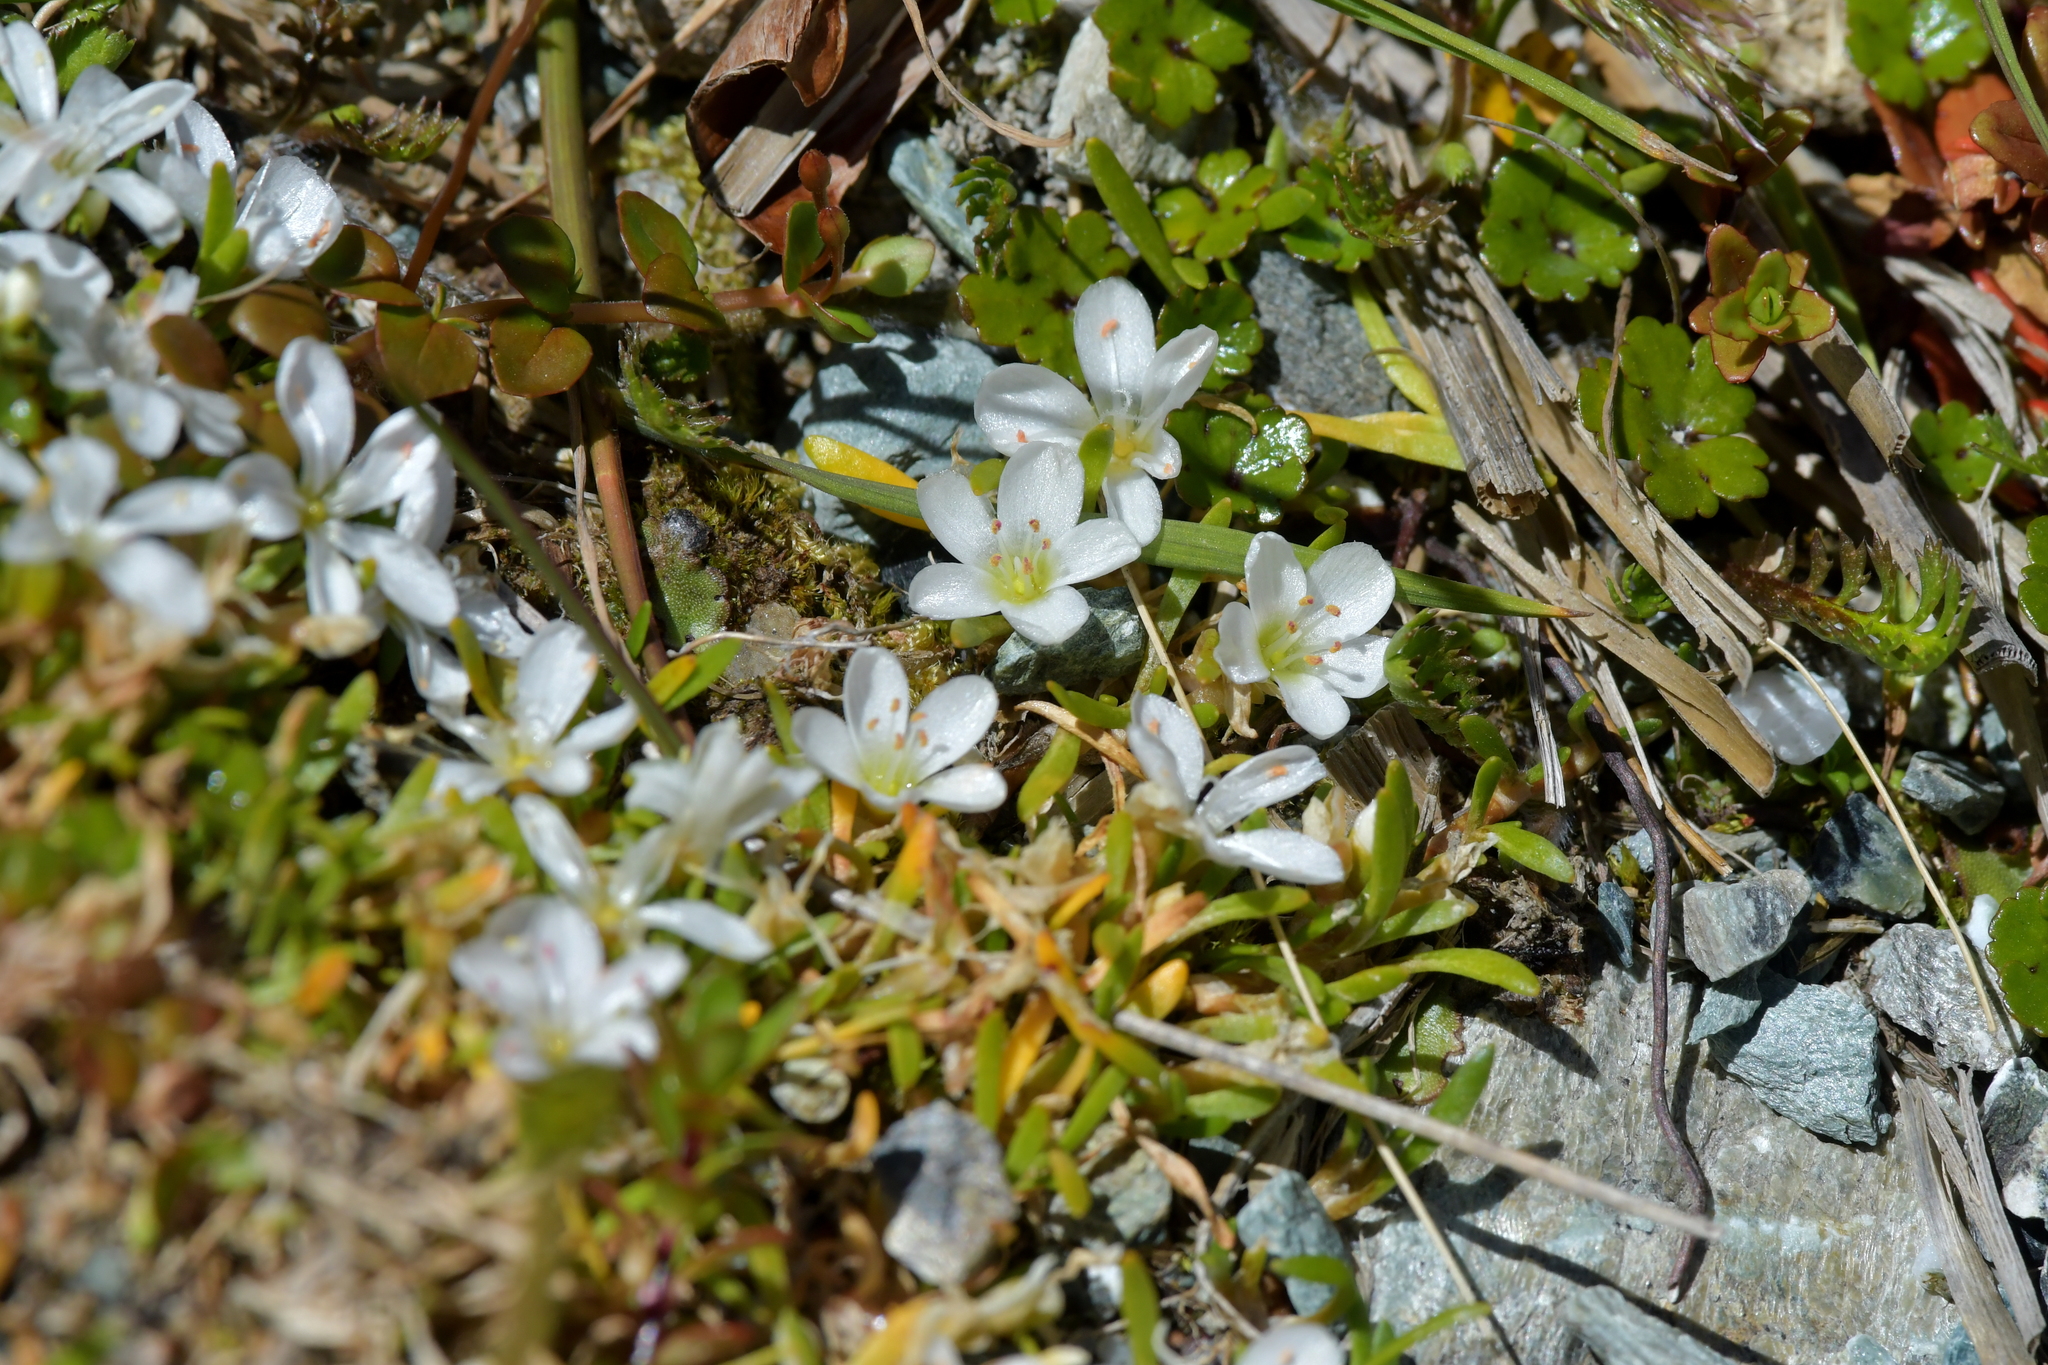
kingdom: Plantae
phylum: Tracheophyta
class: Magnoliopsida
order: Caryophyllales
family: Montiaceae
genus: Montia
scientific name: Montia sessiliflora
